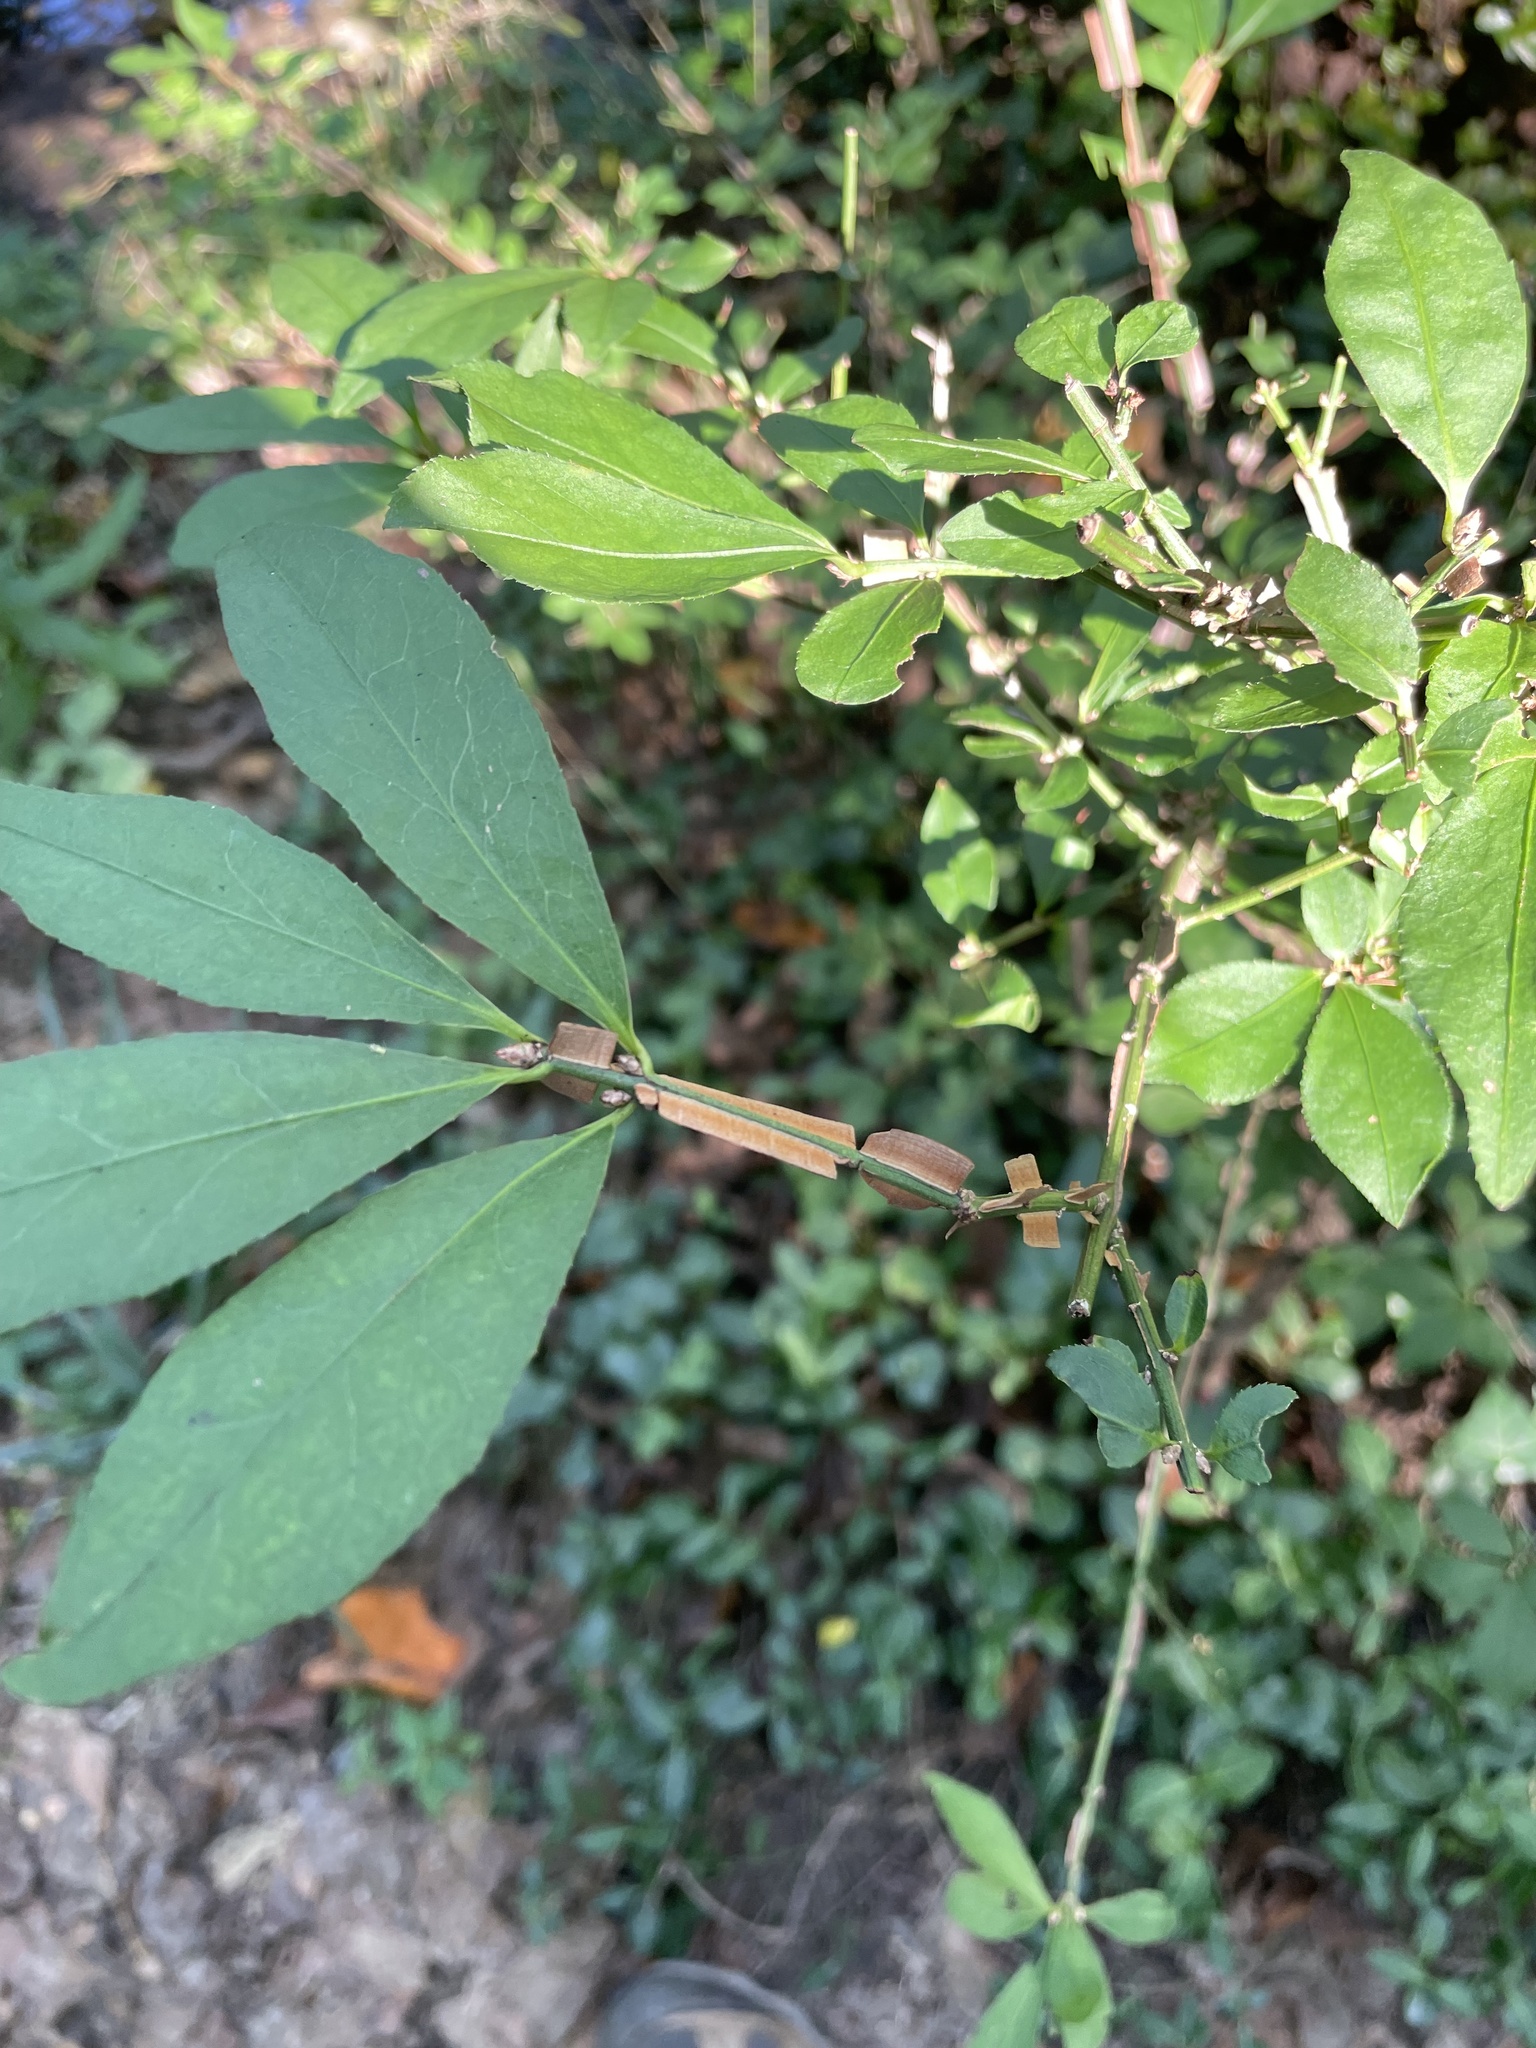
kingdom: Plantae
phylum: Tracheophyta
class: Magnoliopsida
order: Celastrales
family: Celastraceae
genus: Euonymus
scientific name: Euonymus alatus
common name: Winged euonymus
